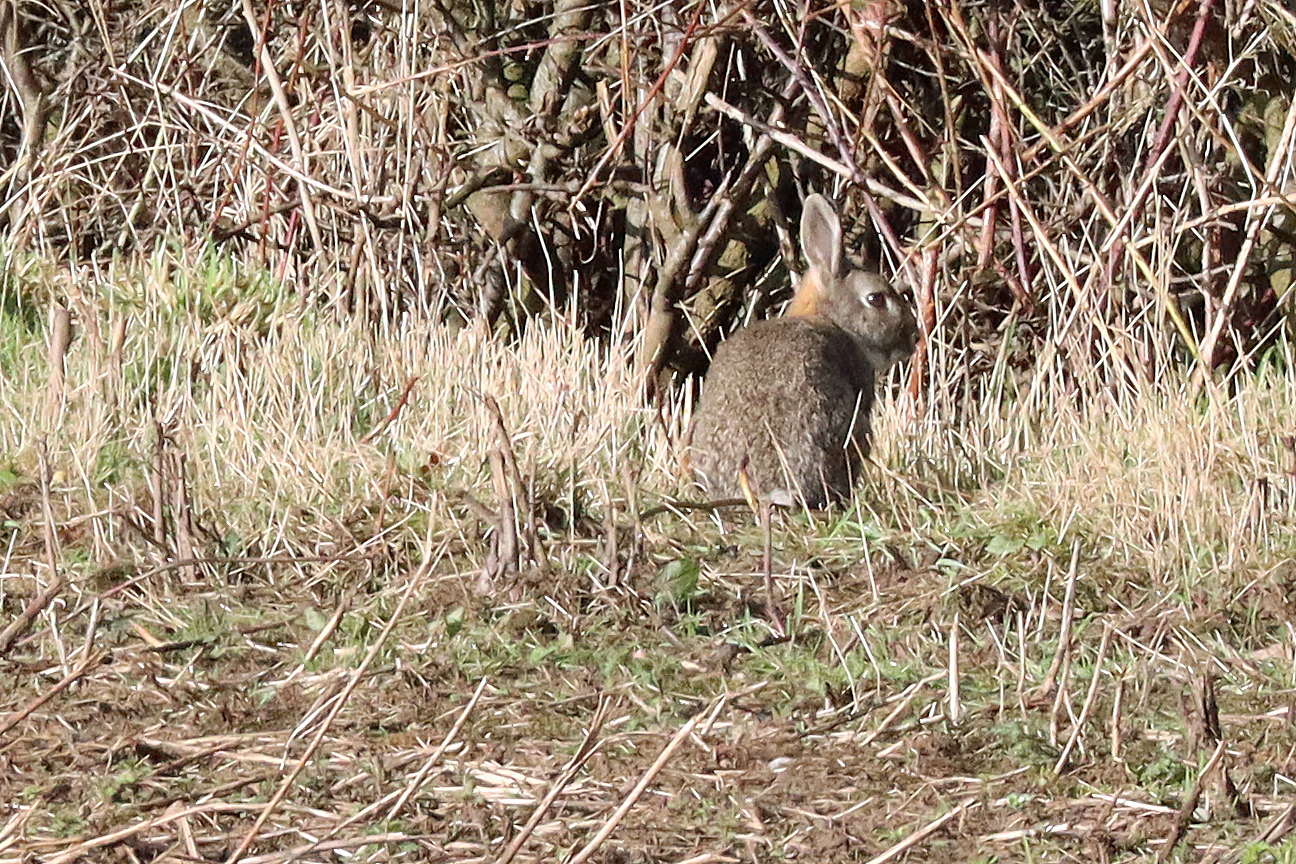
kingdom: Animalia
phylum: Chordata
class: Mammalia
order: Lagomorpha
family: Leporidae
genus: Oryctolagus
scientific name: Oryctolagus cuniculus
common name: European rabbit
